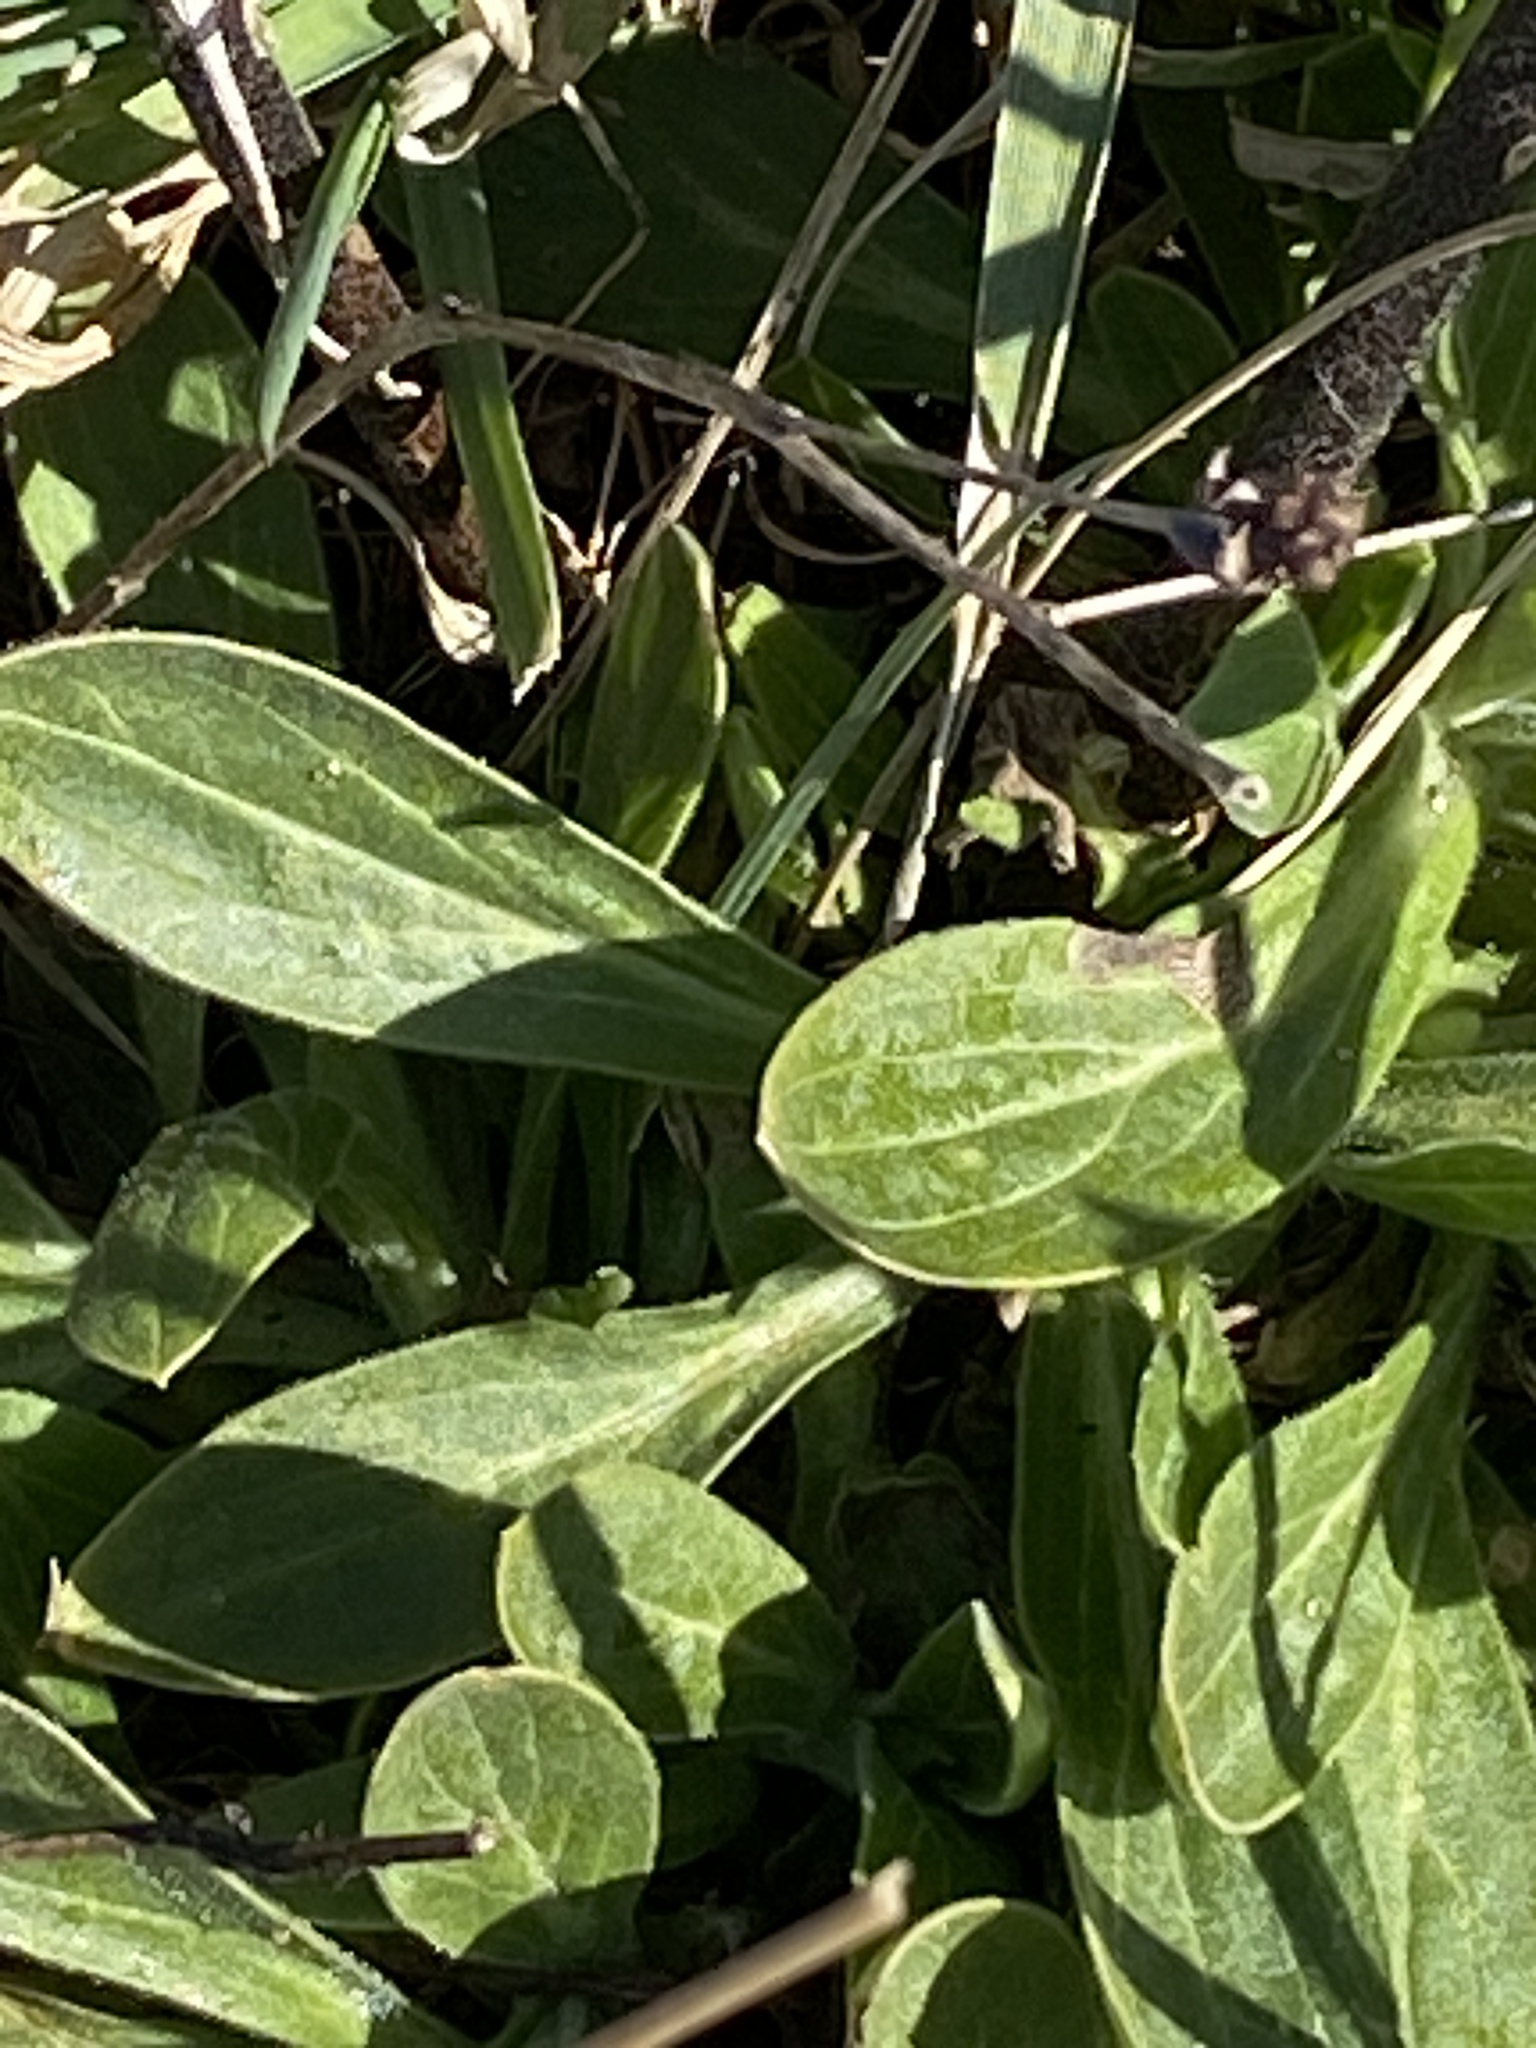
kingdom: Plantae
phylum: Tracheophyta
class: Magnoliopsida
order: Caryophyllales
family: Caryophyllaceae
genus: Silene
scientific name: Silene latifolia
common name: White campion
